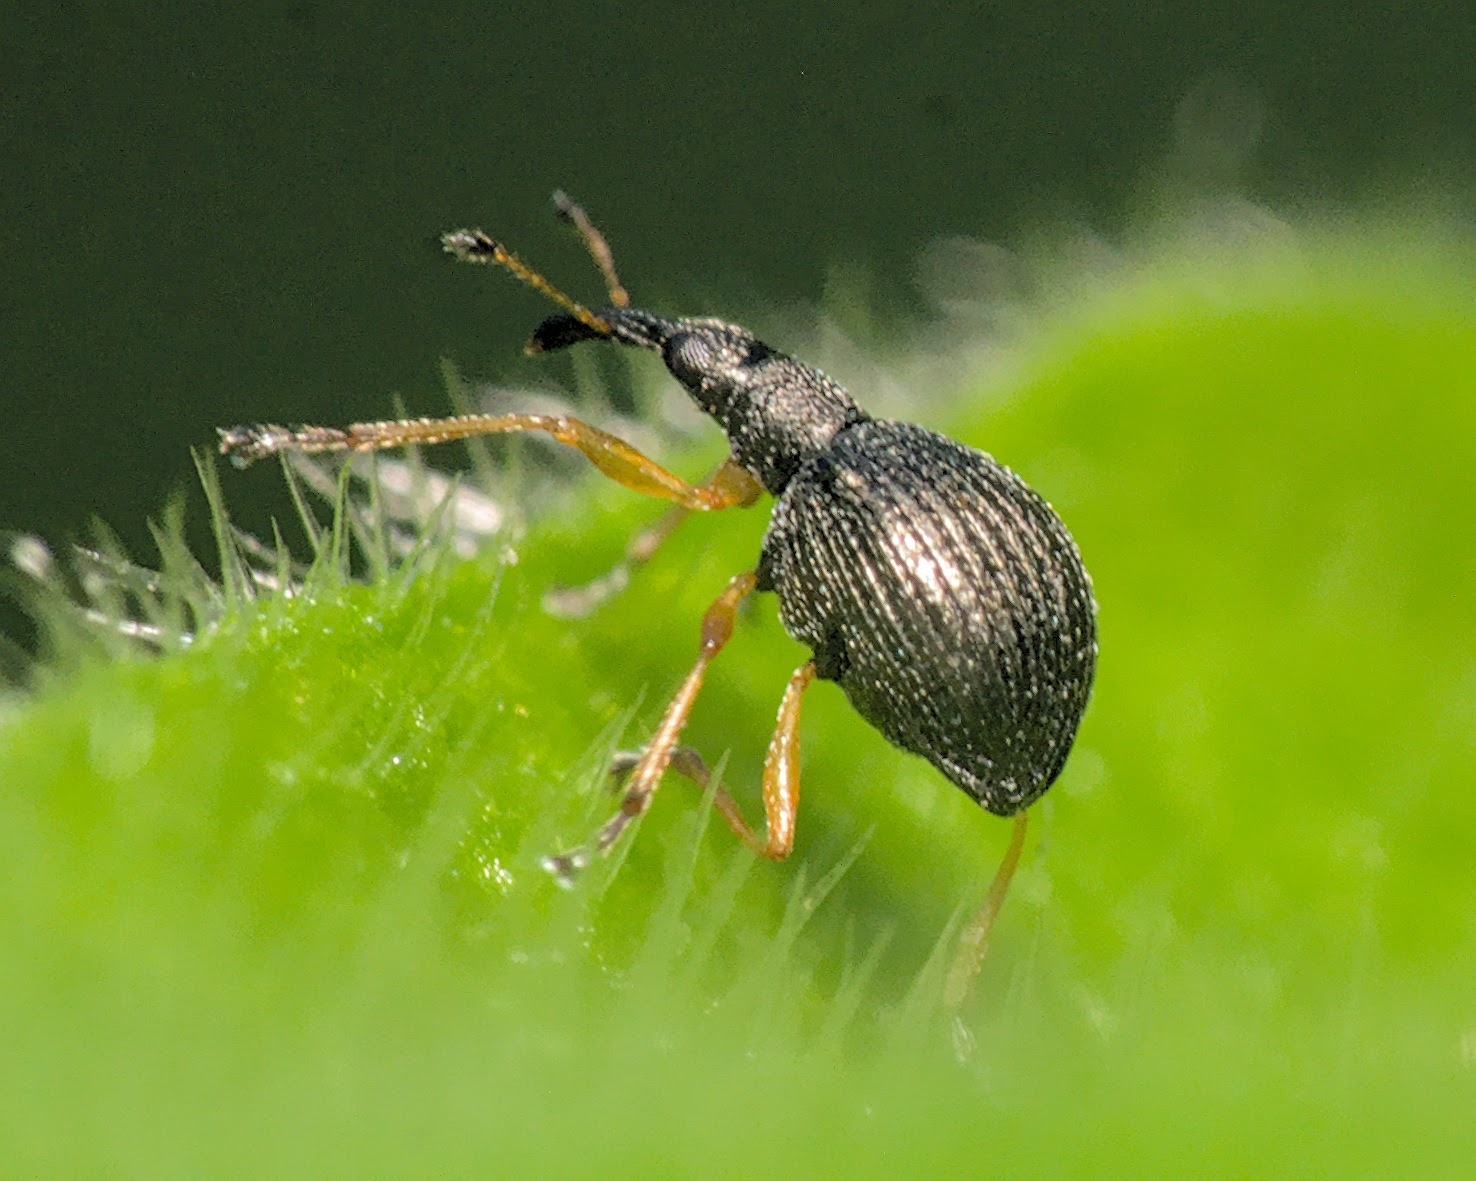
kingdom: Animalia
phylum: Arthropoda
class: Insecta
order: Coleoptera
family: Apionidae
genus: Protapion
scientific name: Protapion nigritarse
